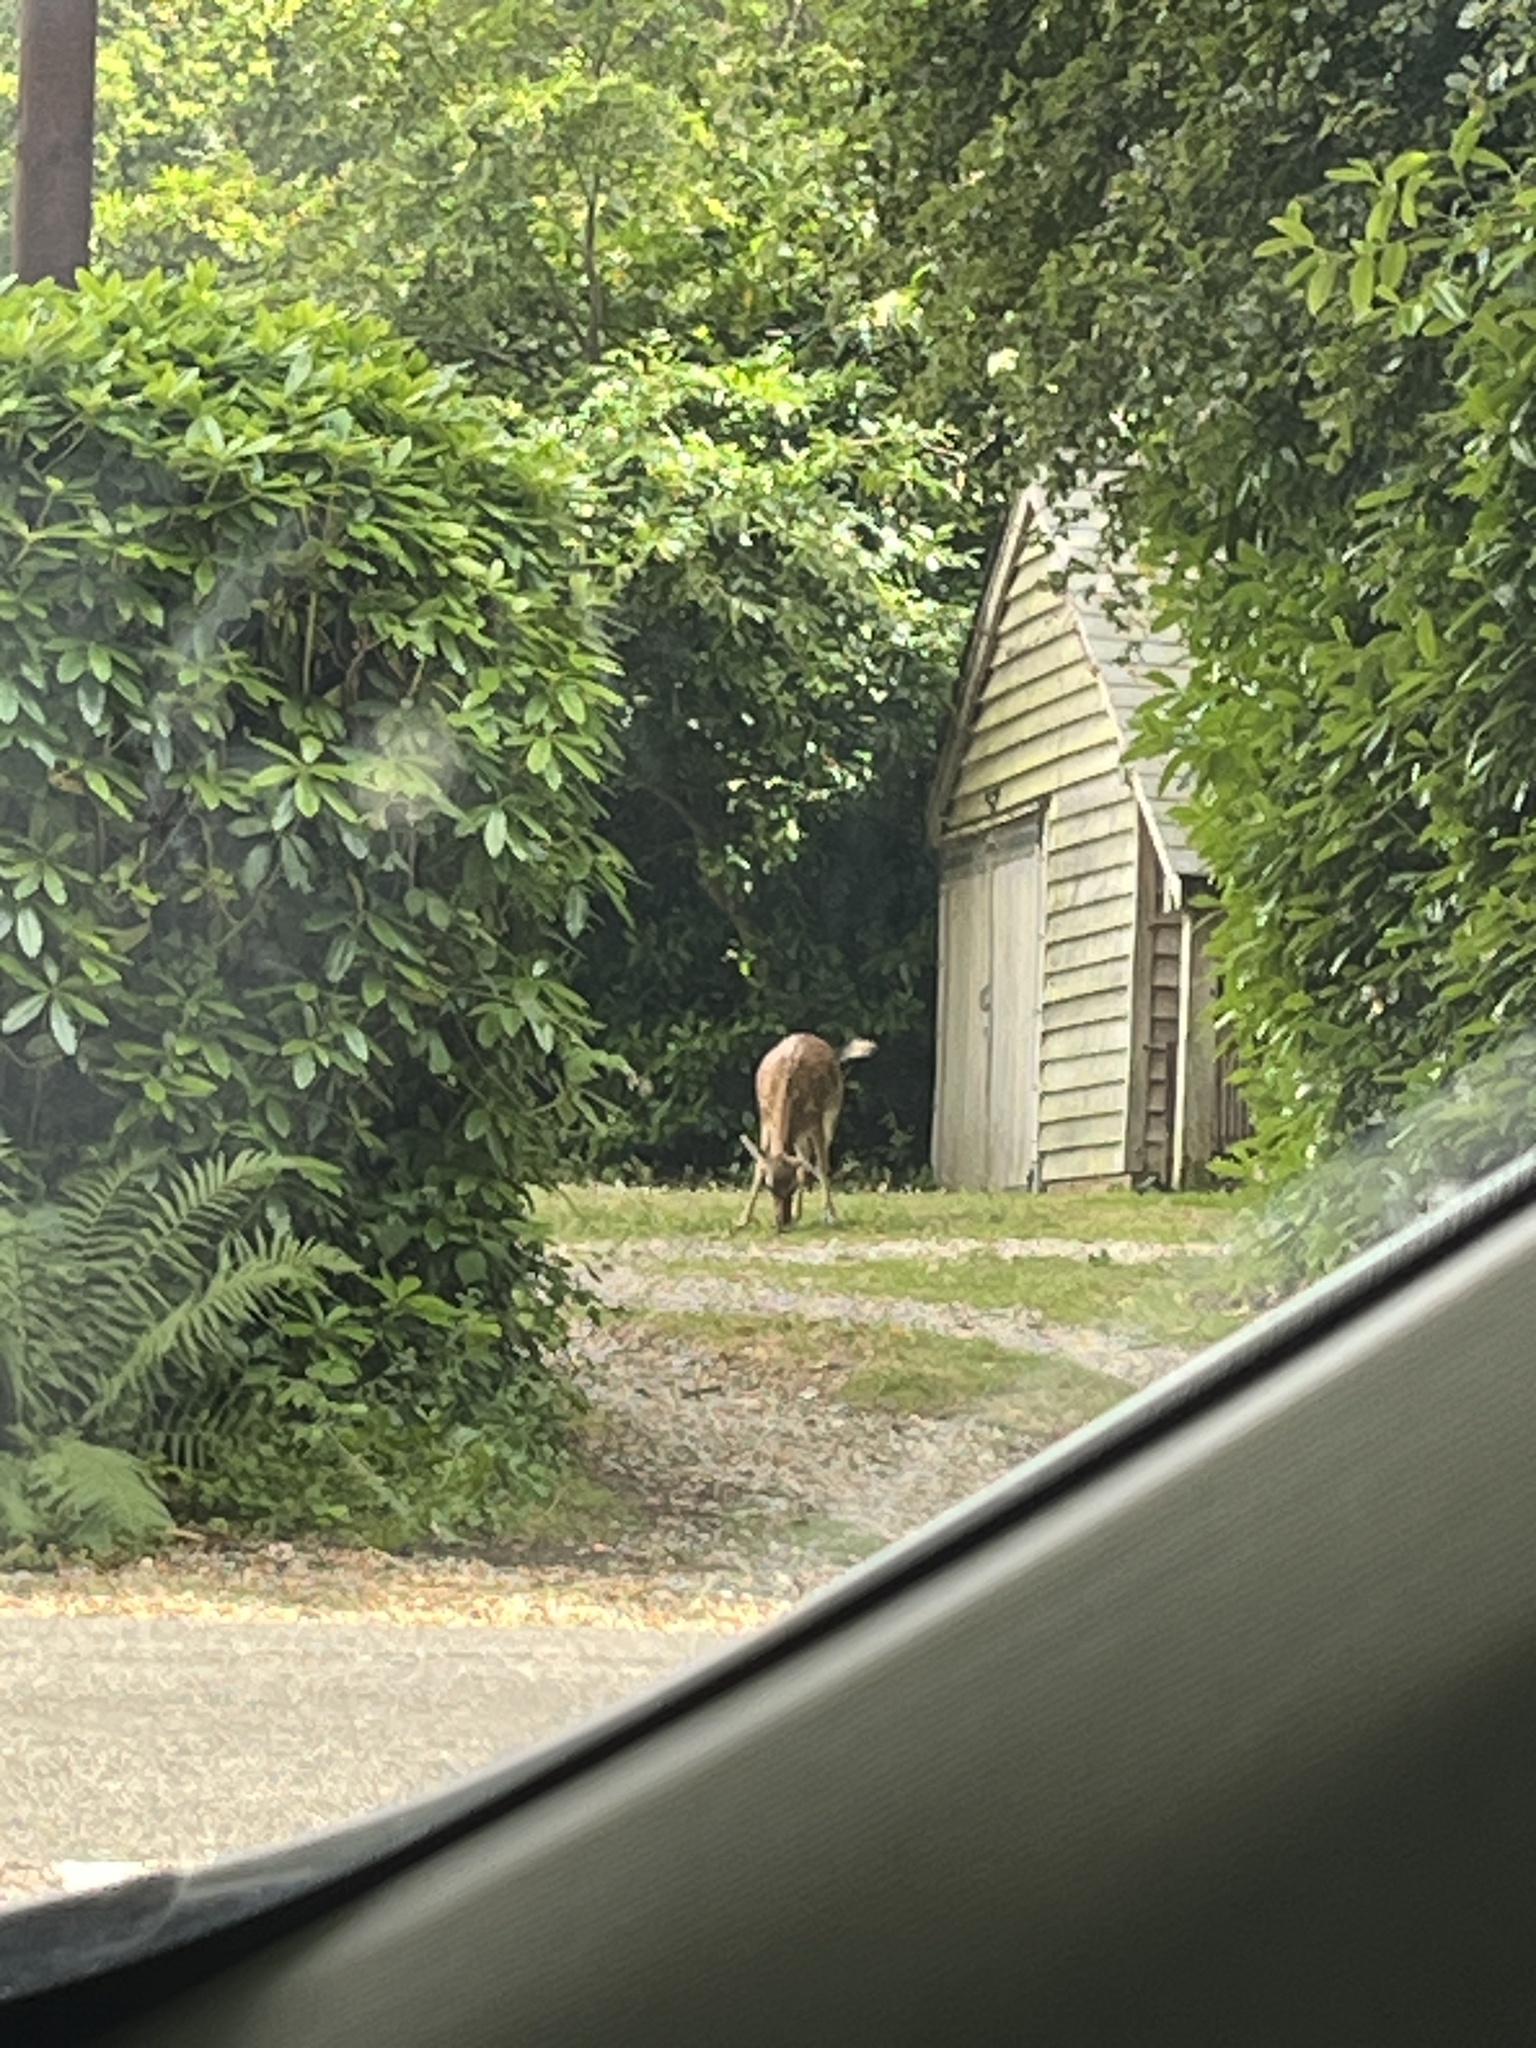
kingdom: Animalia
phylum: Chordata
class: Mammalia
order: Artiodactyla
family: Cervidae
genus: Dama
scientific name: Dama dama
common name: Fallow deer
